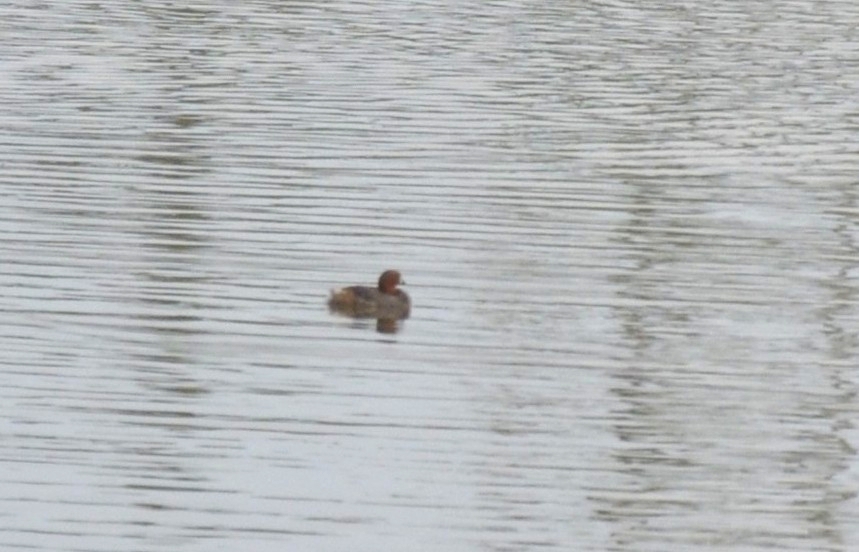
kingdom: Animalia
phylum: Chordata
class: Aves
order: Podicipediformes
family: Podicipedidae
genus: Tachybaptus
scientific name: Tachybaptus ruficollis
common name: Little grebe
